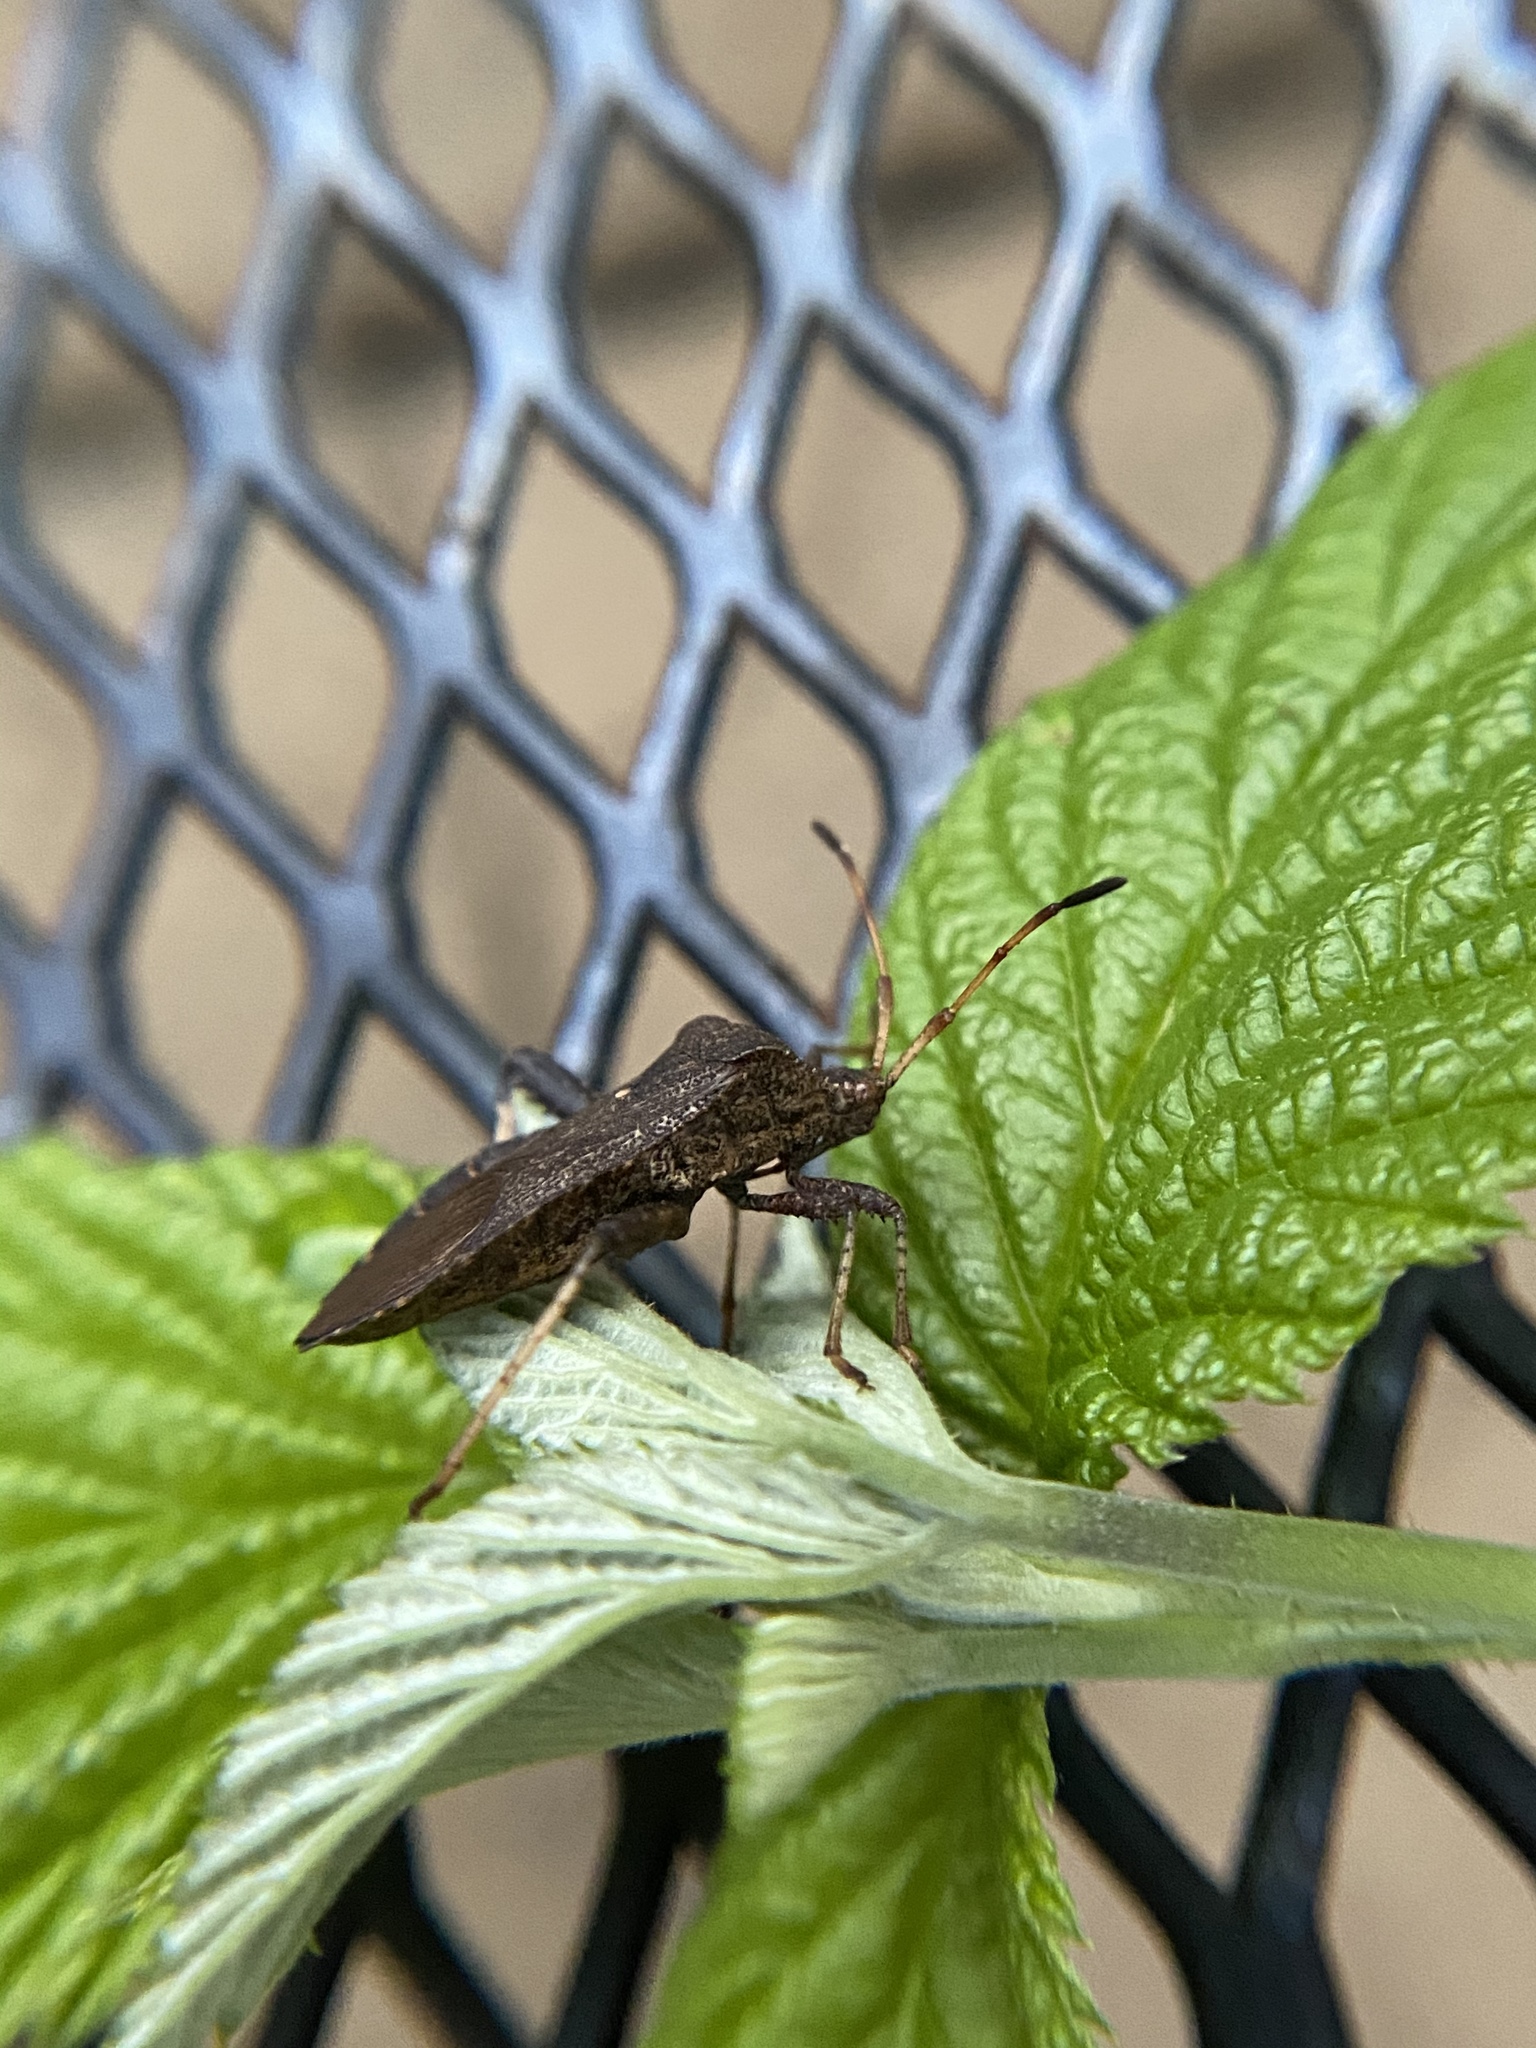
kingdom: Animalia
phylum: Arthropoda
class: Insecta
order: Hemiptera
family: Coreidae
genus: Euthochtha
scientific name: Euthochtha galeator
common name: Helmeted squash bug
